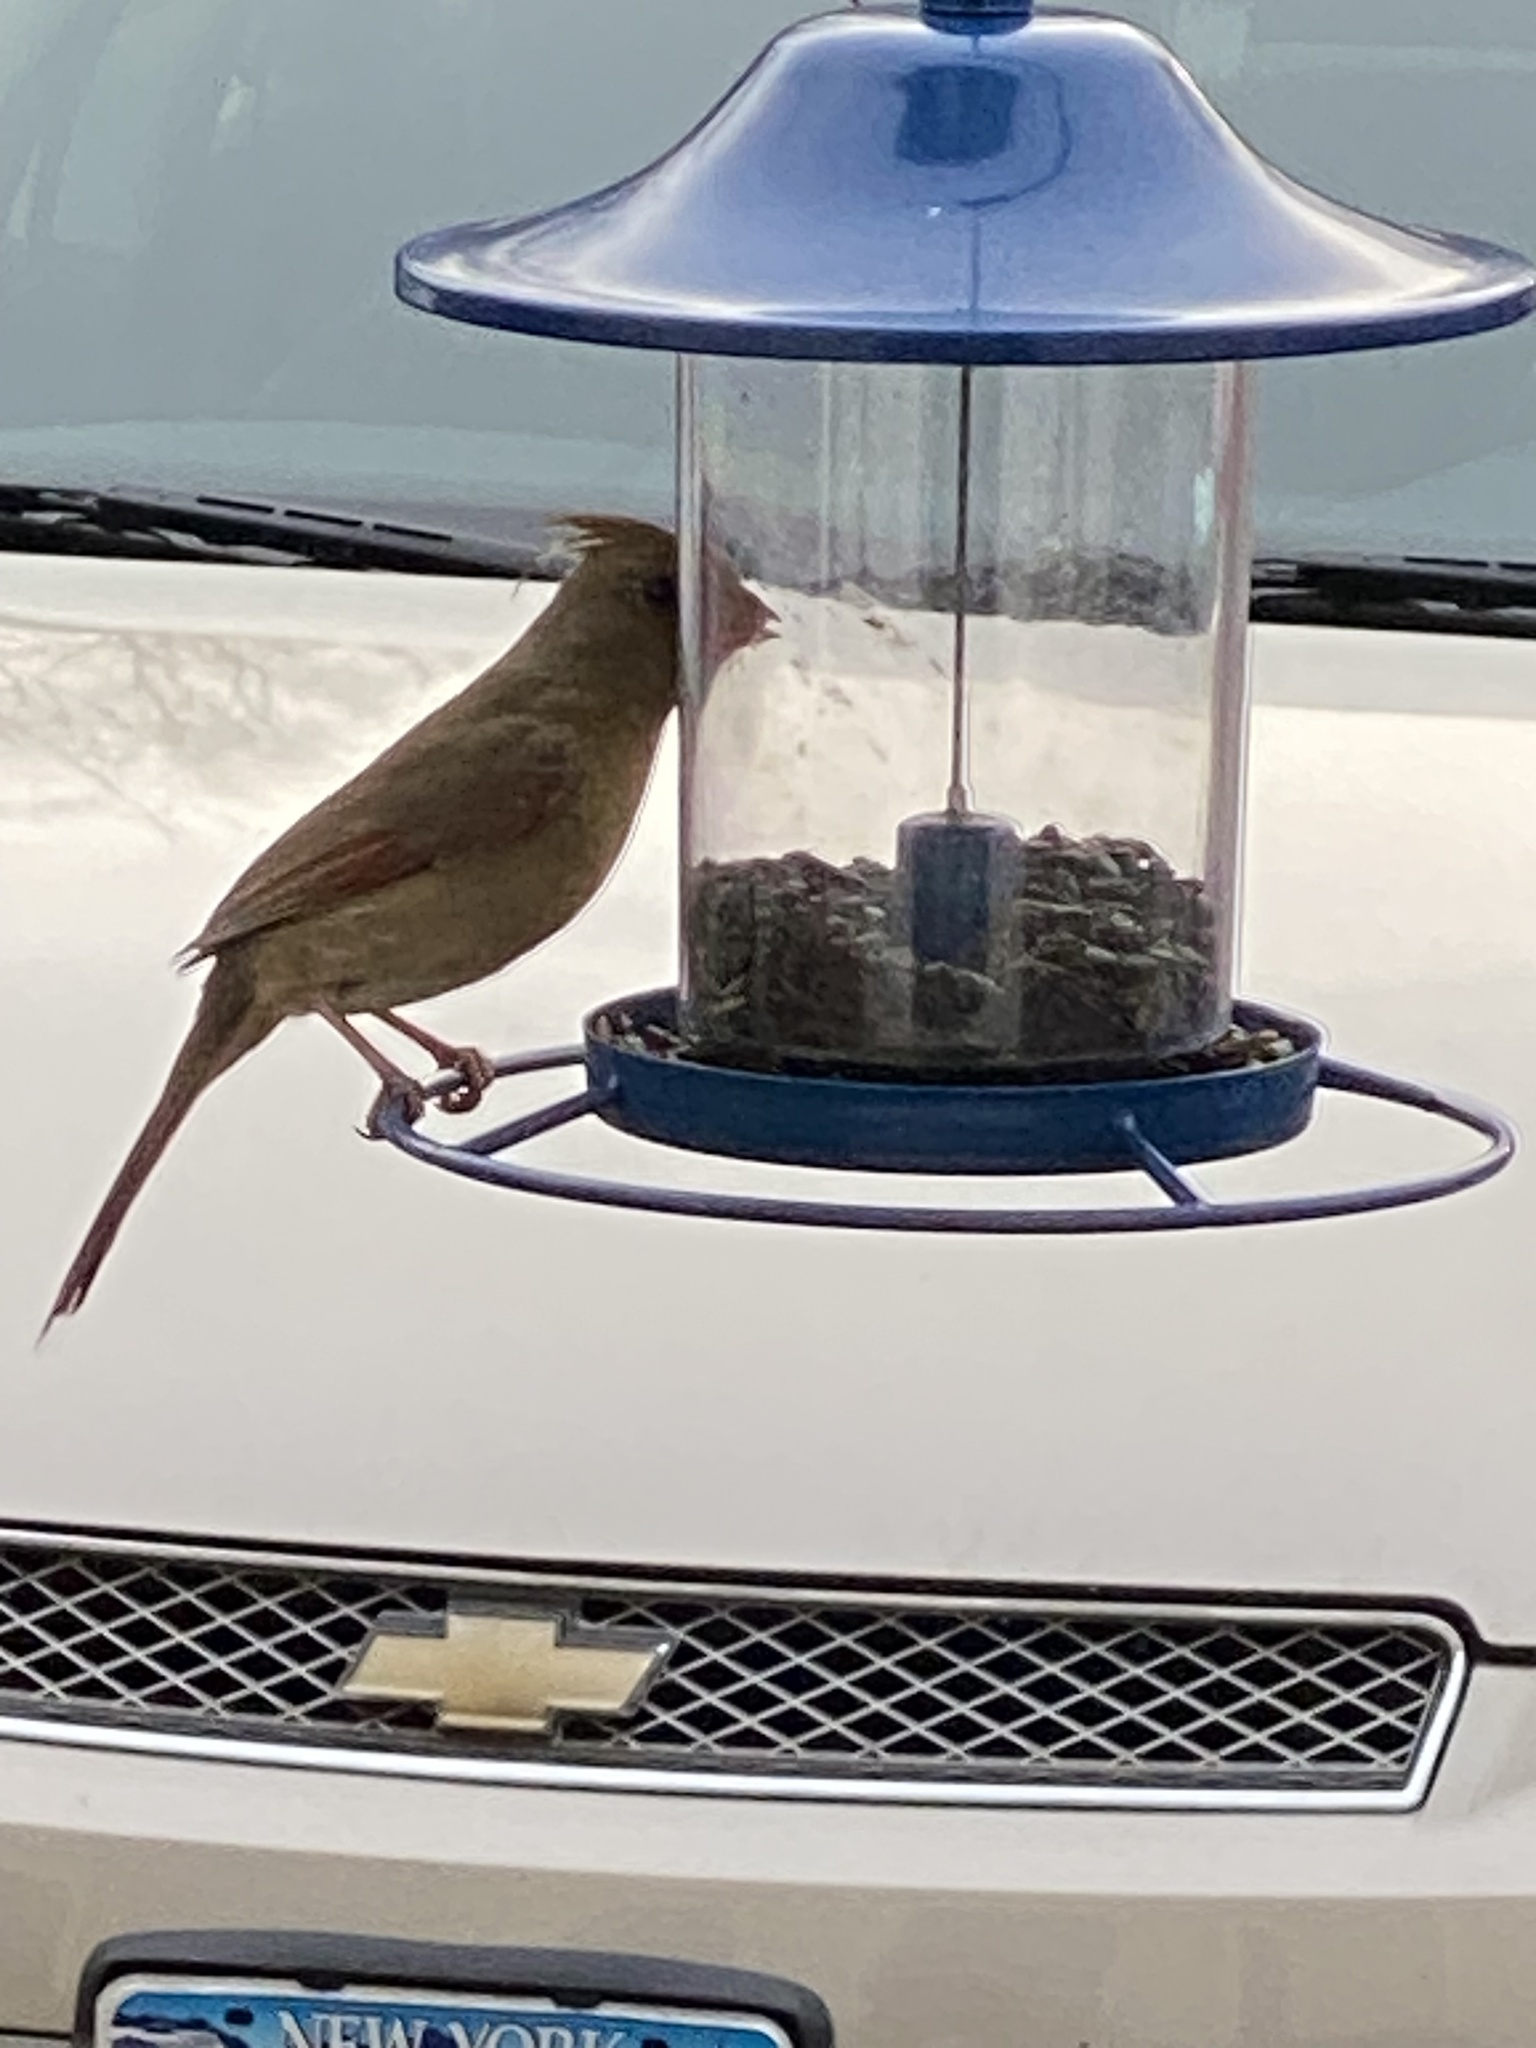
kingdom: Animalia
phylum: Chordata
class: Aves
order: Passeriformes
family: Cardinalidae
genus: Cardinalis
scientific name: Cardinalis cardinalis
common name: Northern cardinal
